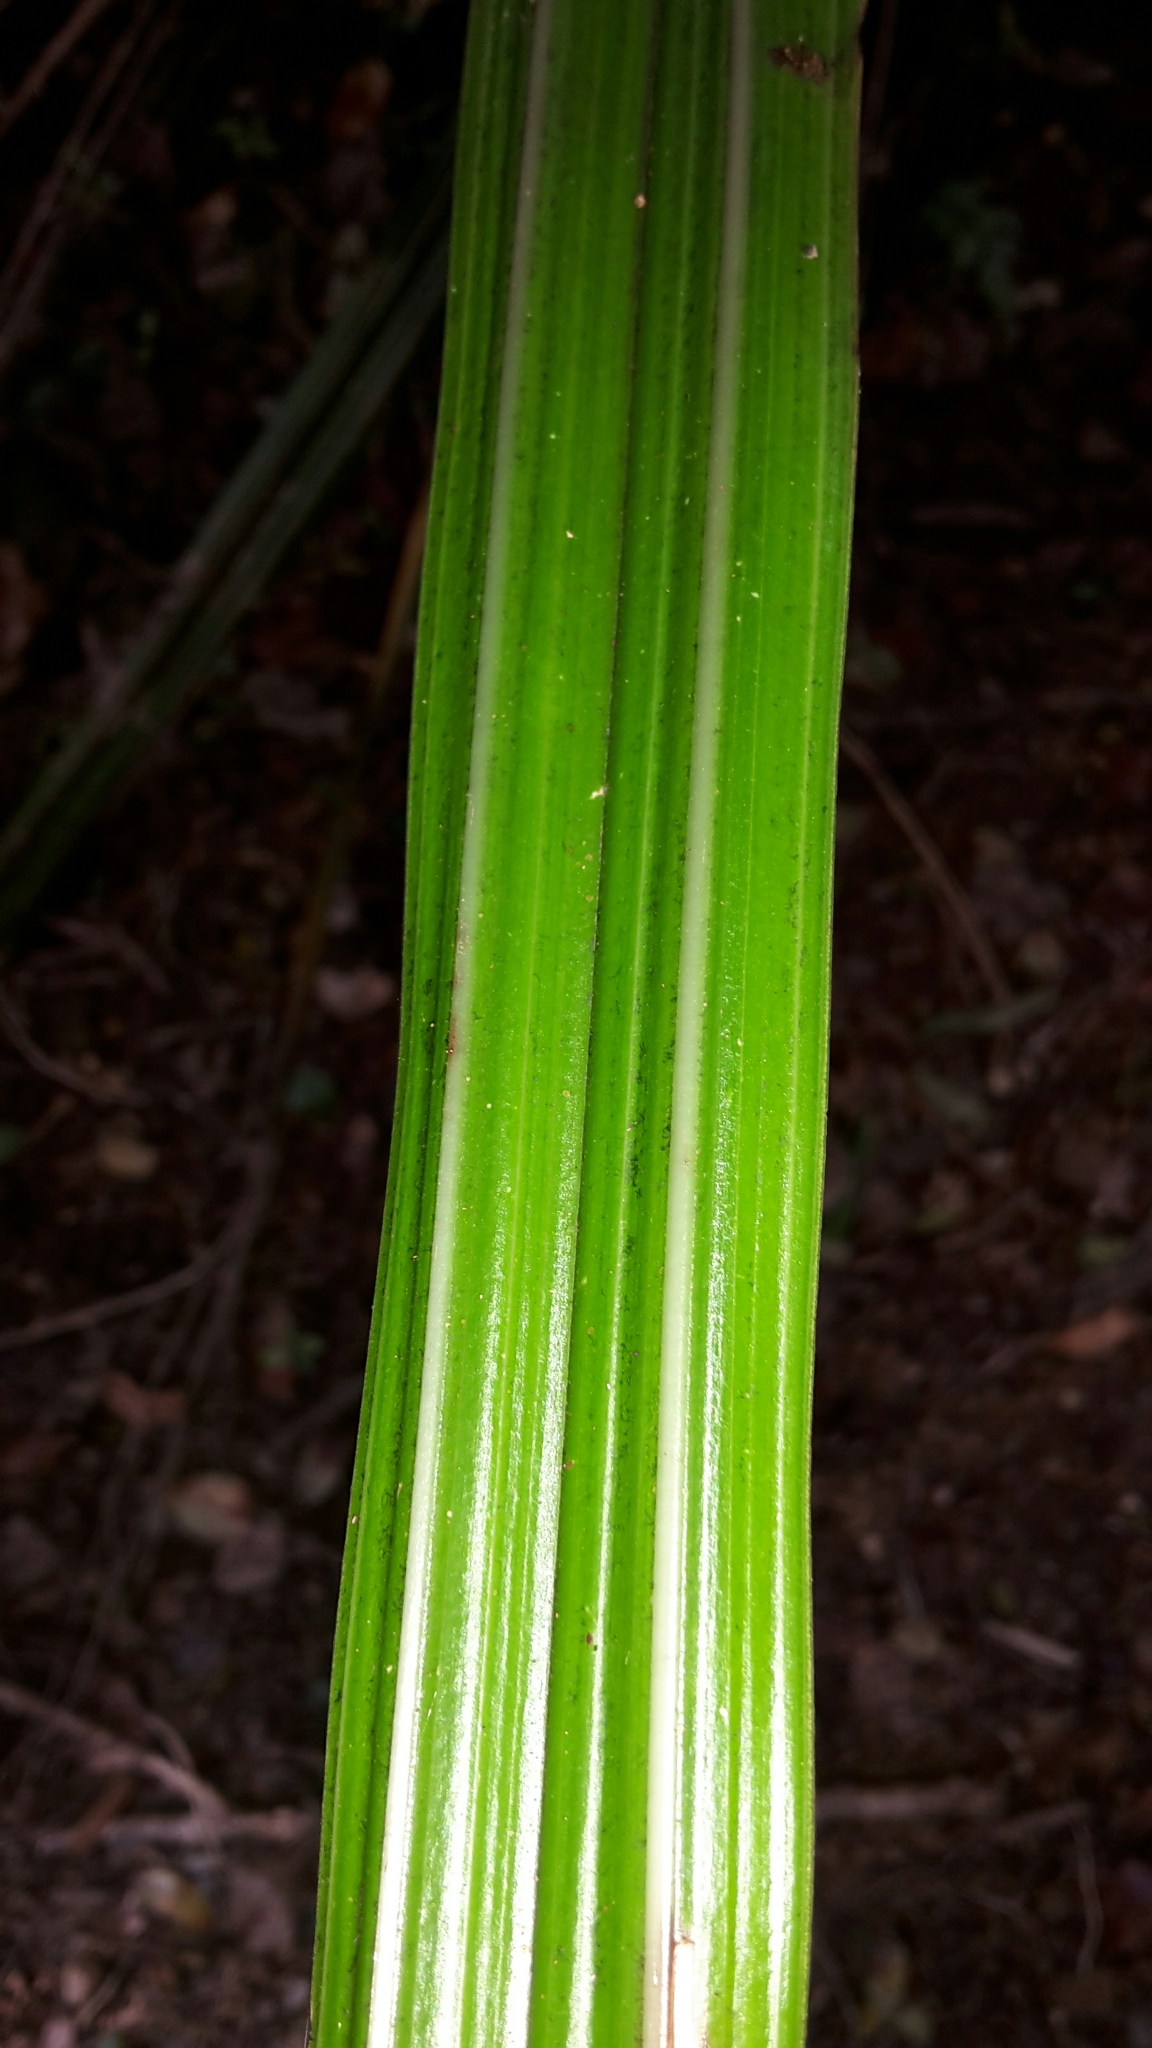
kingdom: Plantae
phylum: Tracheophyta
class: Liliopsida
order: Asparagales
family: Asteliaceae
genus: Astelia
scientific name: Astelia fragrans
